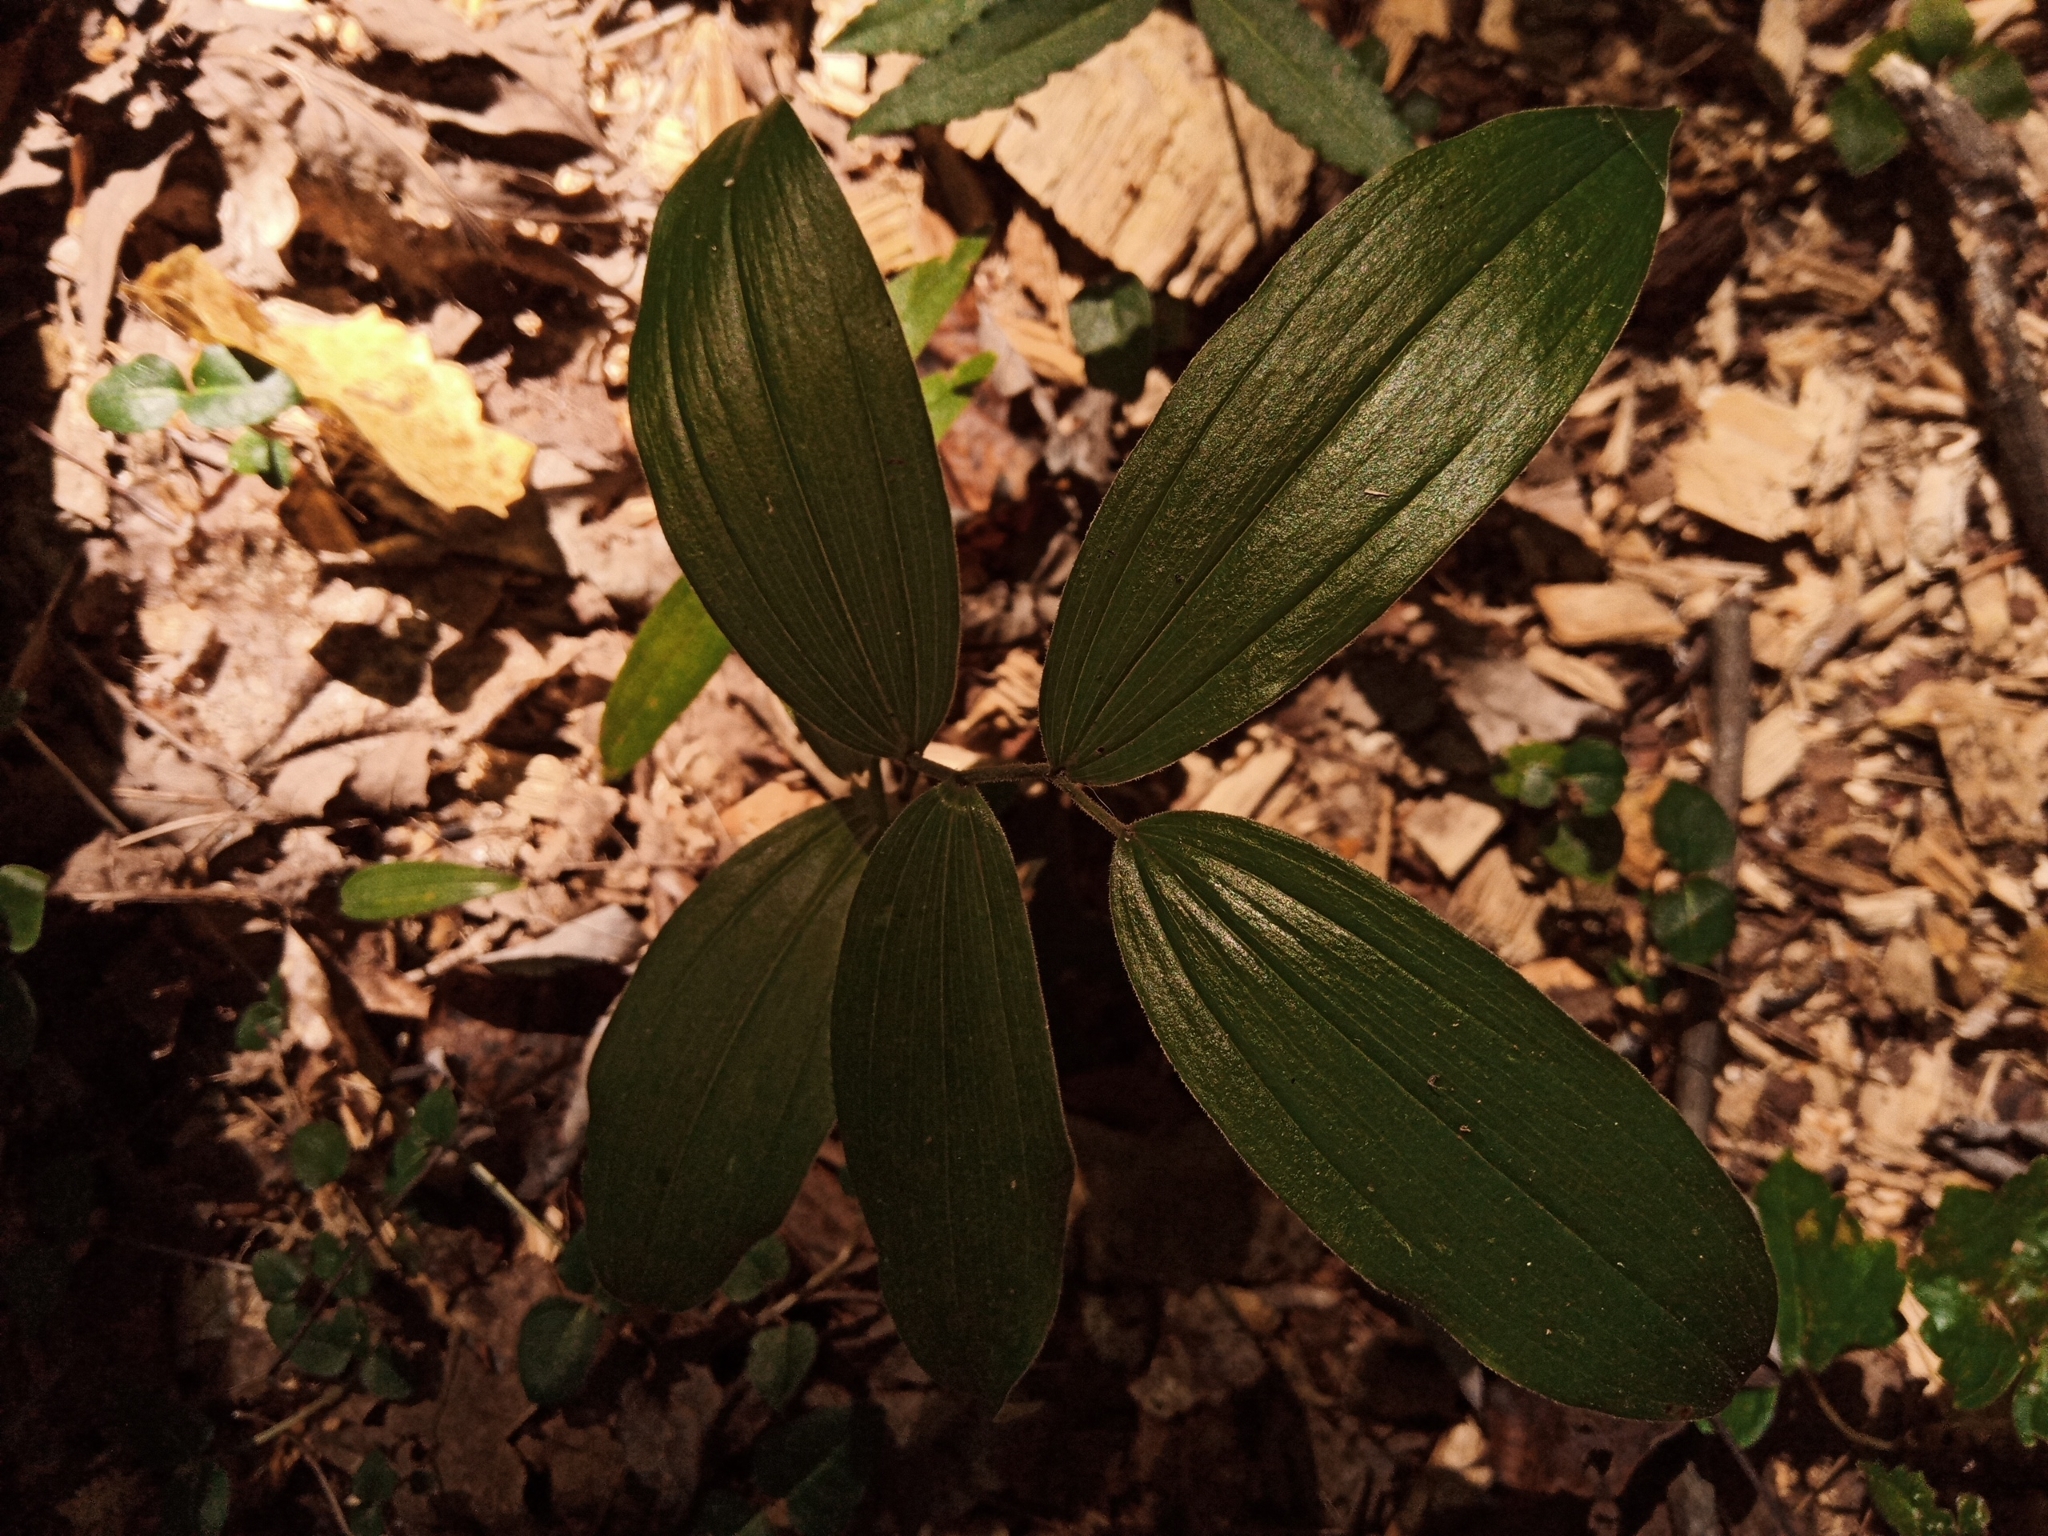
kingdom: Plantae
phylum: Tracheophyta
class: Liliopsida
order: Asparagales
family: Asparagaceae
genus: Maianthemum
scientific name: Maianthemum racemosum
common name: False spikenard
